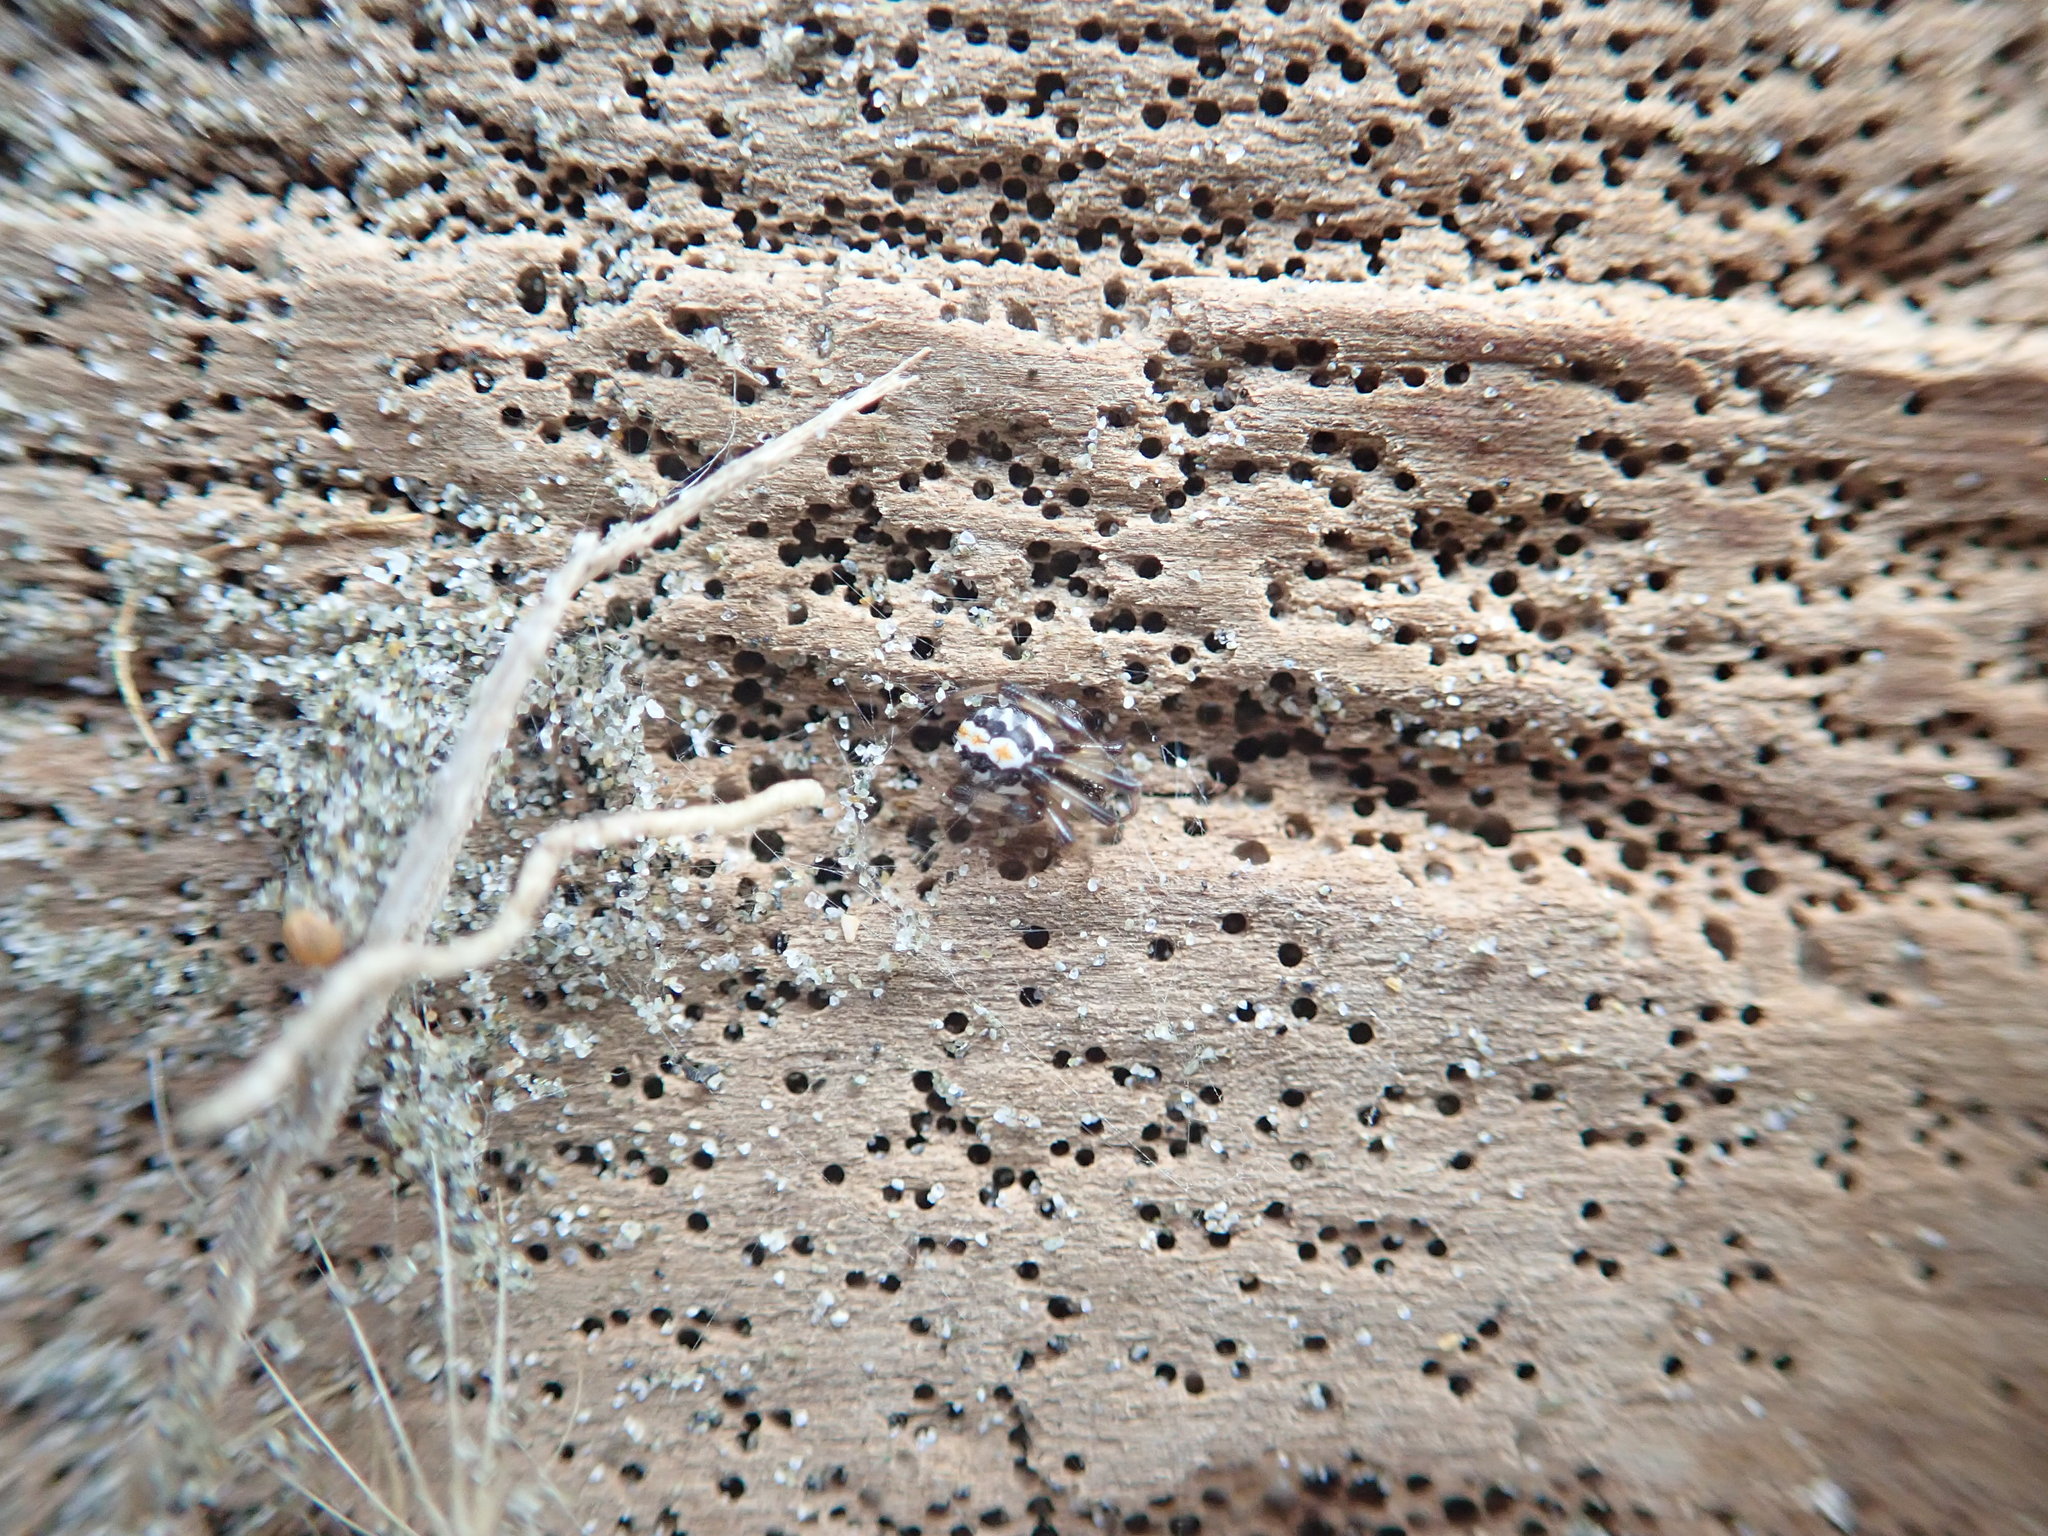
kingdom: Animalia
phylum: Arthropoda
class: Arachnida
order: Araneae
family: Theridiidae
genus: Latrodectus
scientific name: Latrodectus katipo
